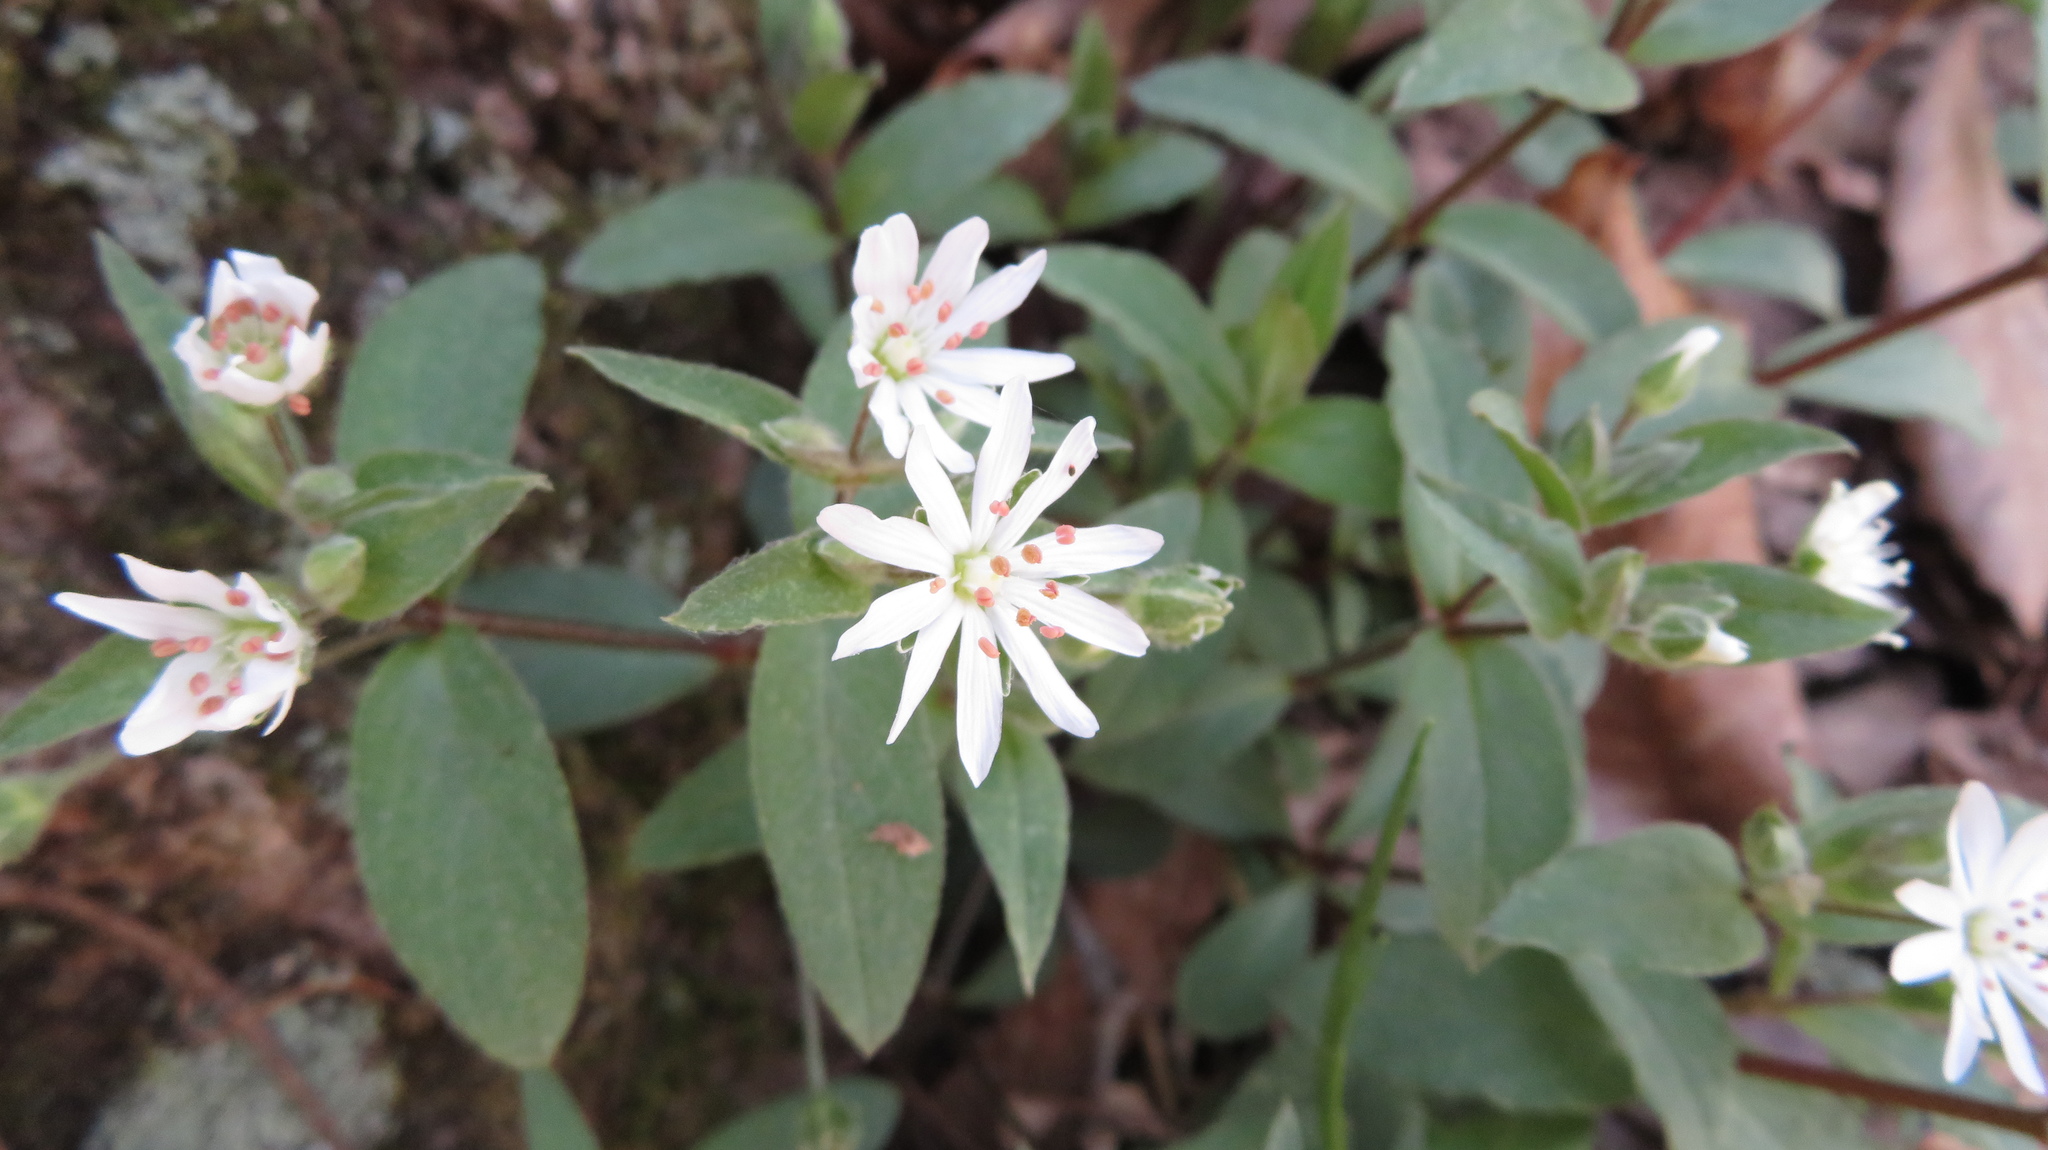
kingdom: Plantae
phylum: Tracheophyta
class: Magnoliopsida
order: Caryophyllales
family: Caryophyllaceae
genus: Stellaria
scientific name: Stellaria pubera
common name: Star chickweed
